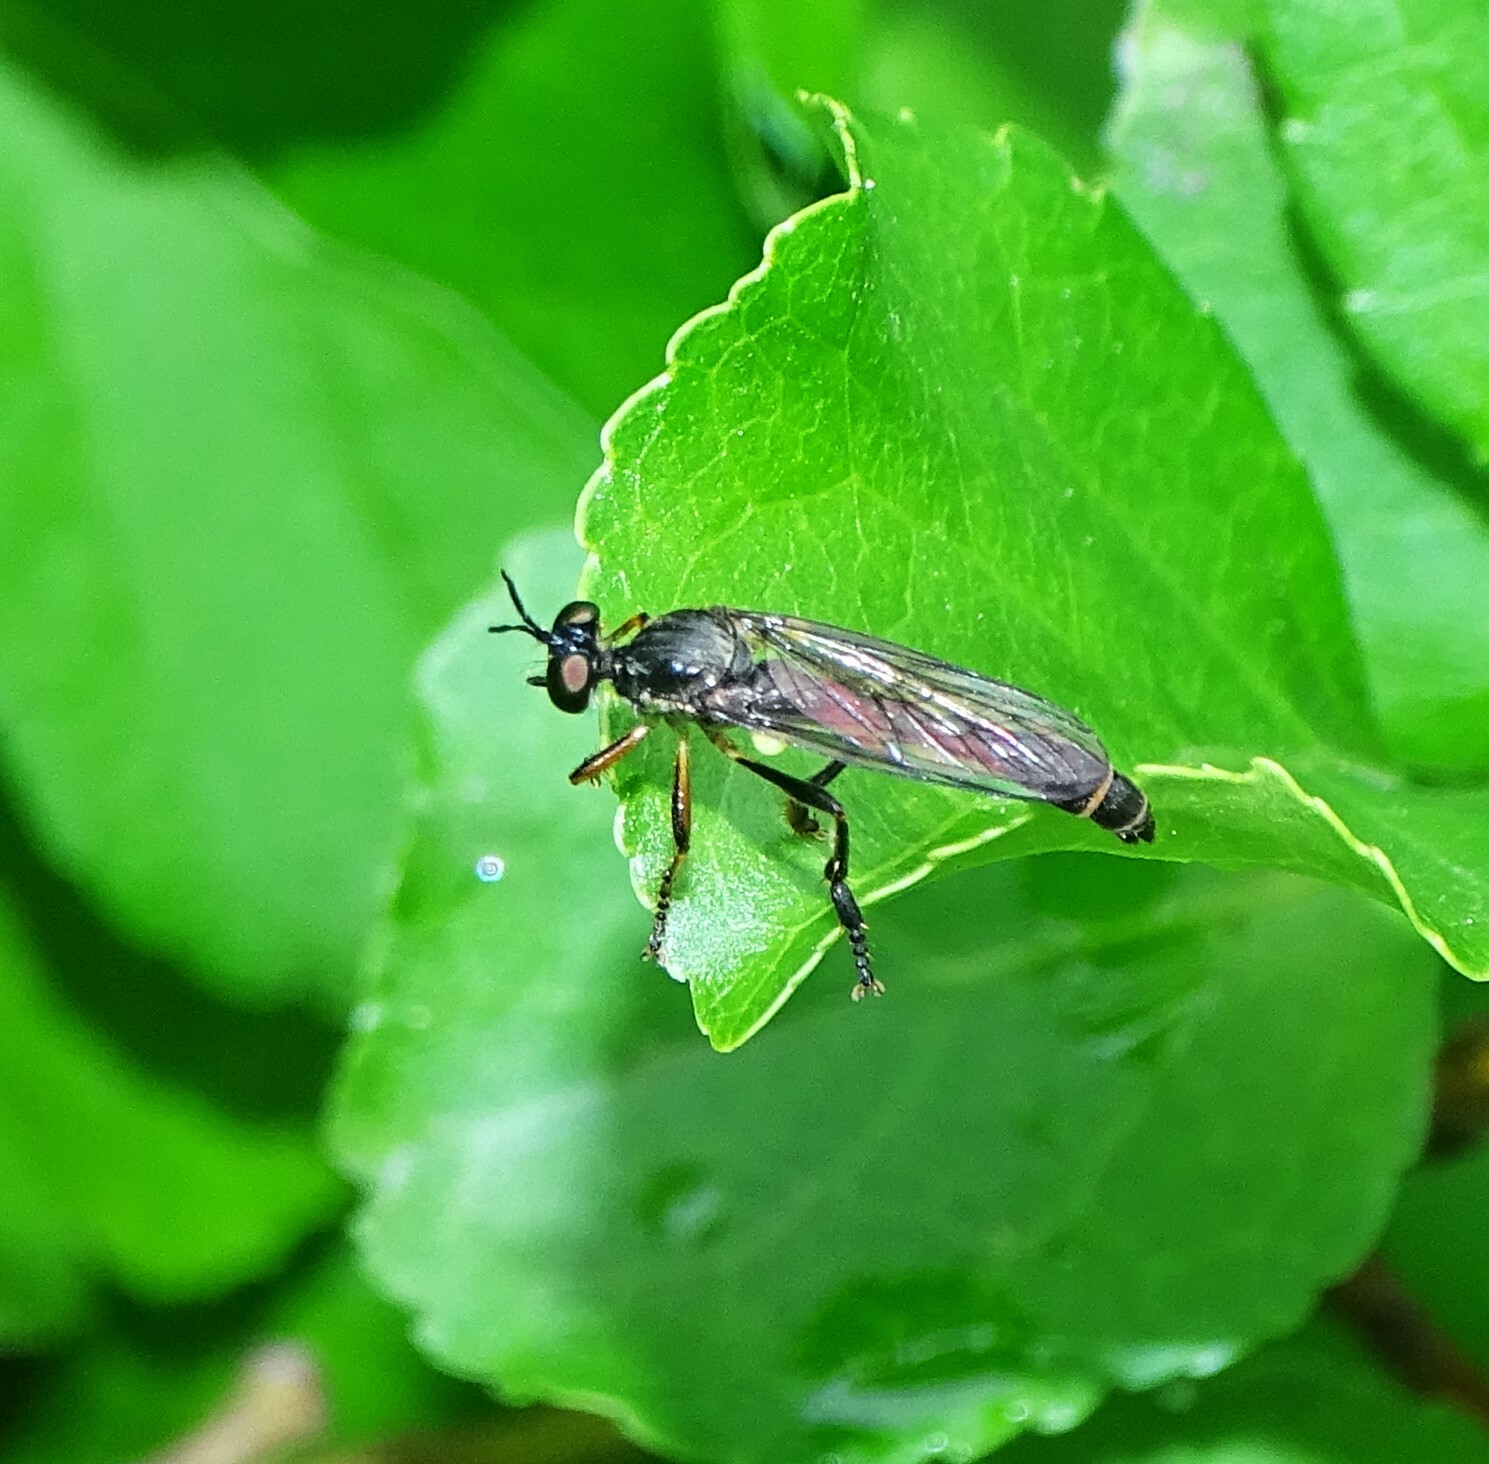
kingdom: Animalia
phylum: Arthropoda
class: Insecta
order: Diptera
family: Asilidae
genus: Dioctria
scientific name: Dioctria hyalipennis
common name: Stripe-legged robberfly
